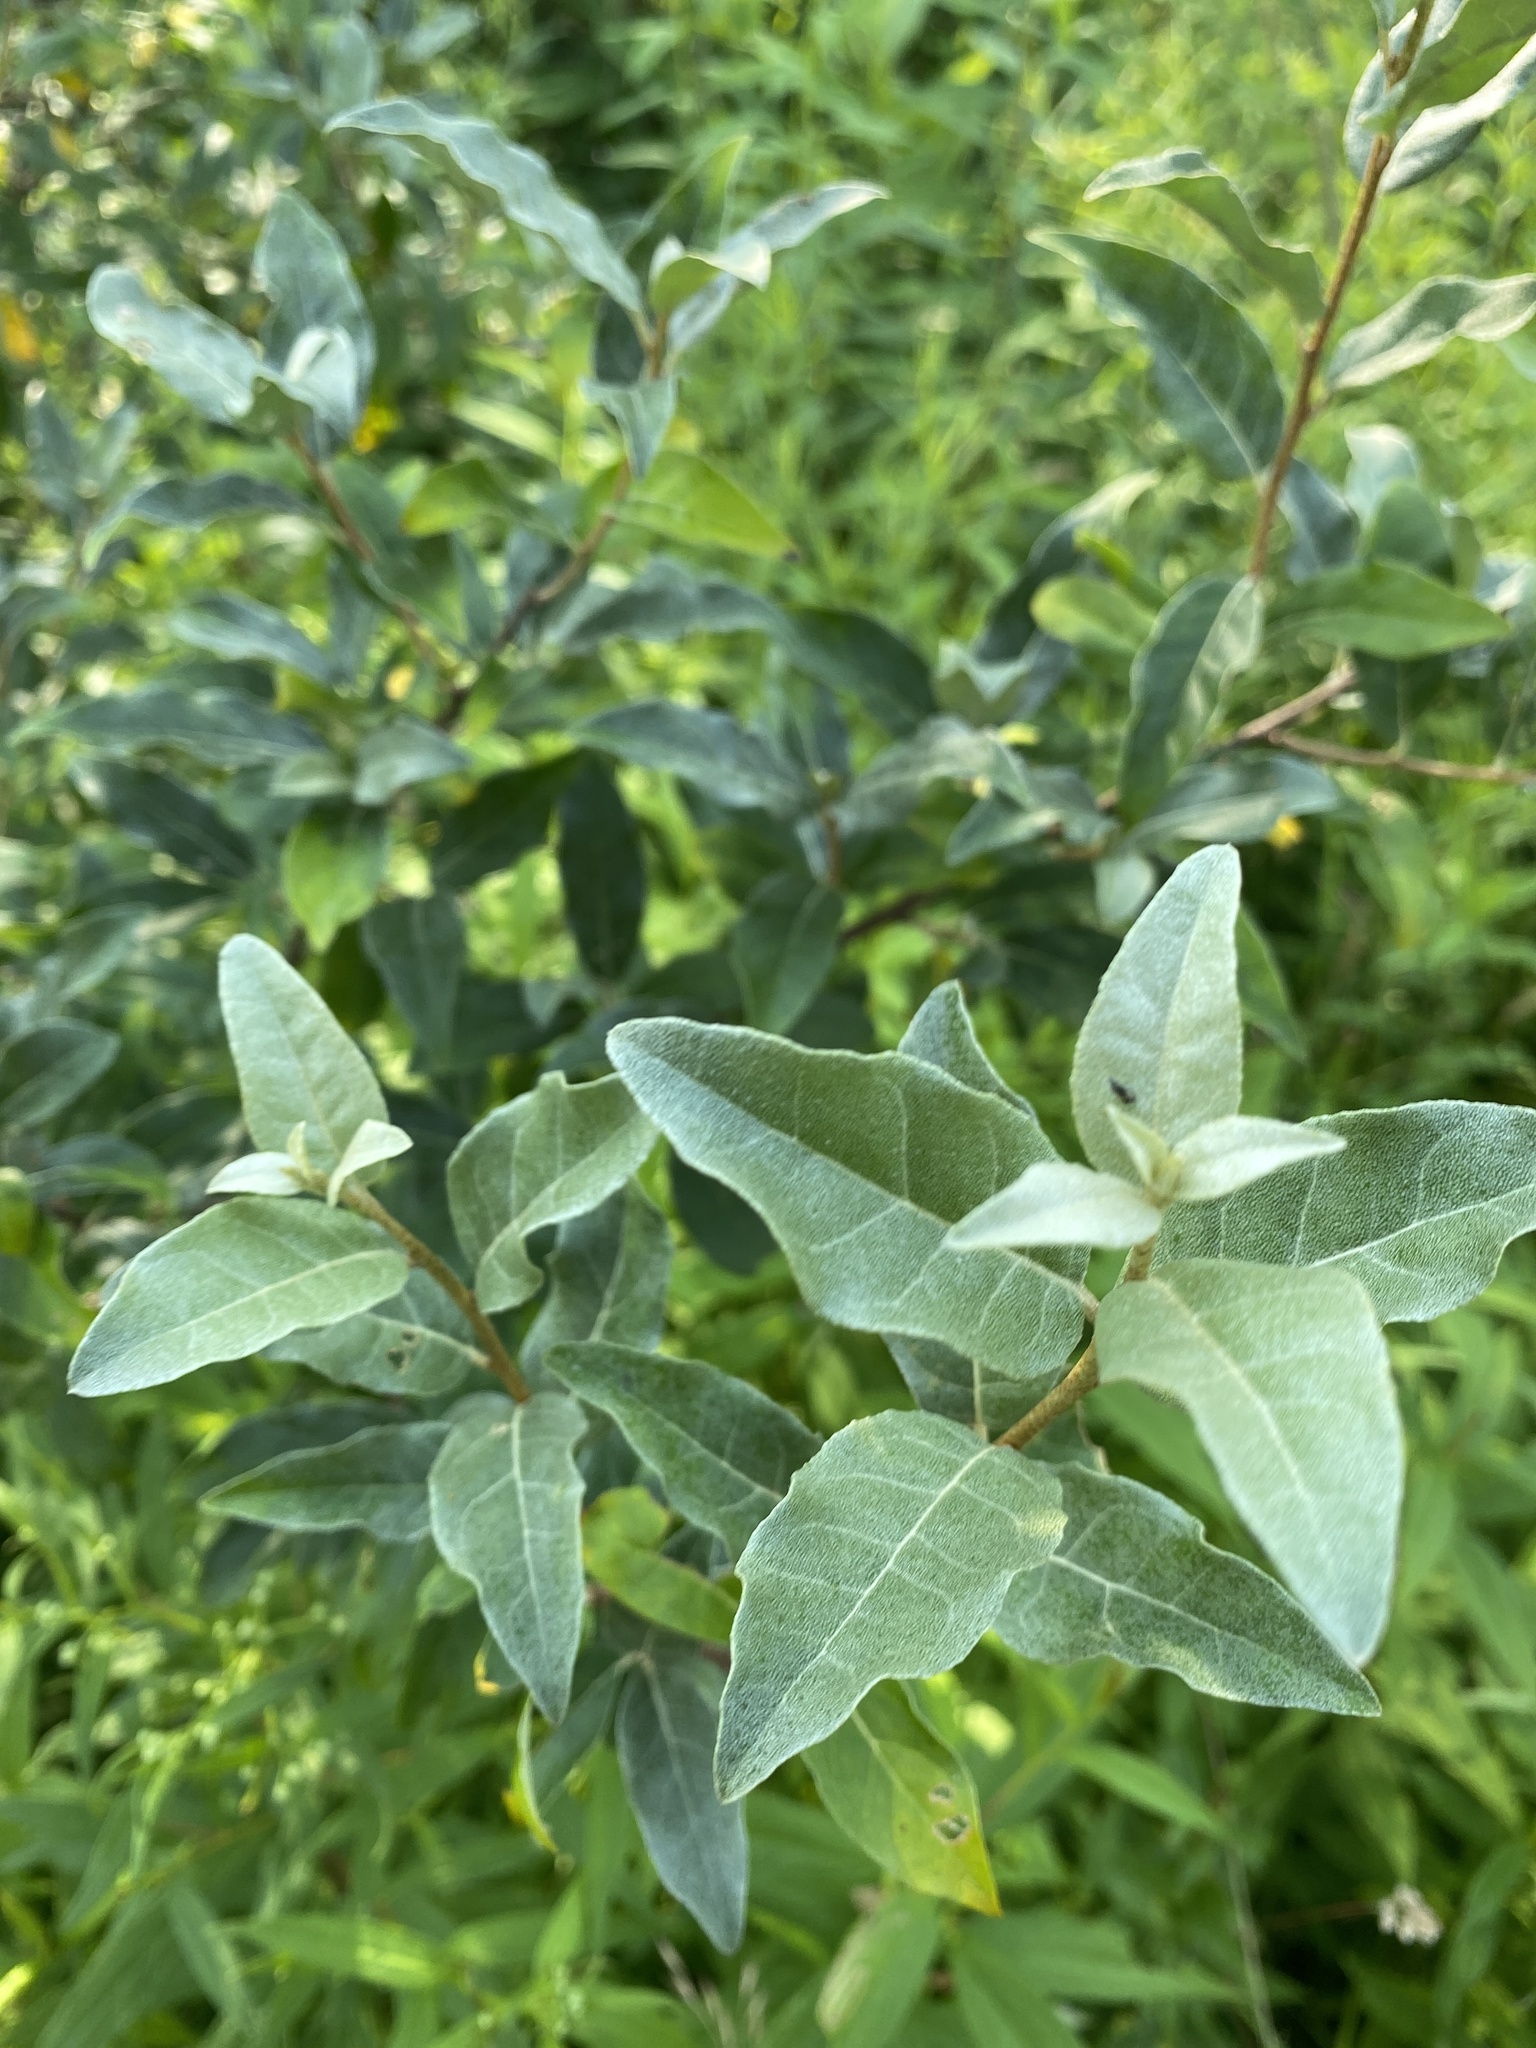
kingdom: Plantae
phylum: Tracheophyta
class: Magnoliopsida
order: Rosales
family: Elaeagnaceae
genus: Elaeagnus
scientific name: Elaeagnus umbellata
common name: Autumn olive
